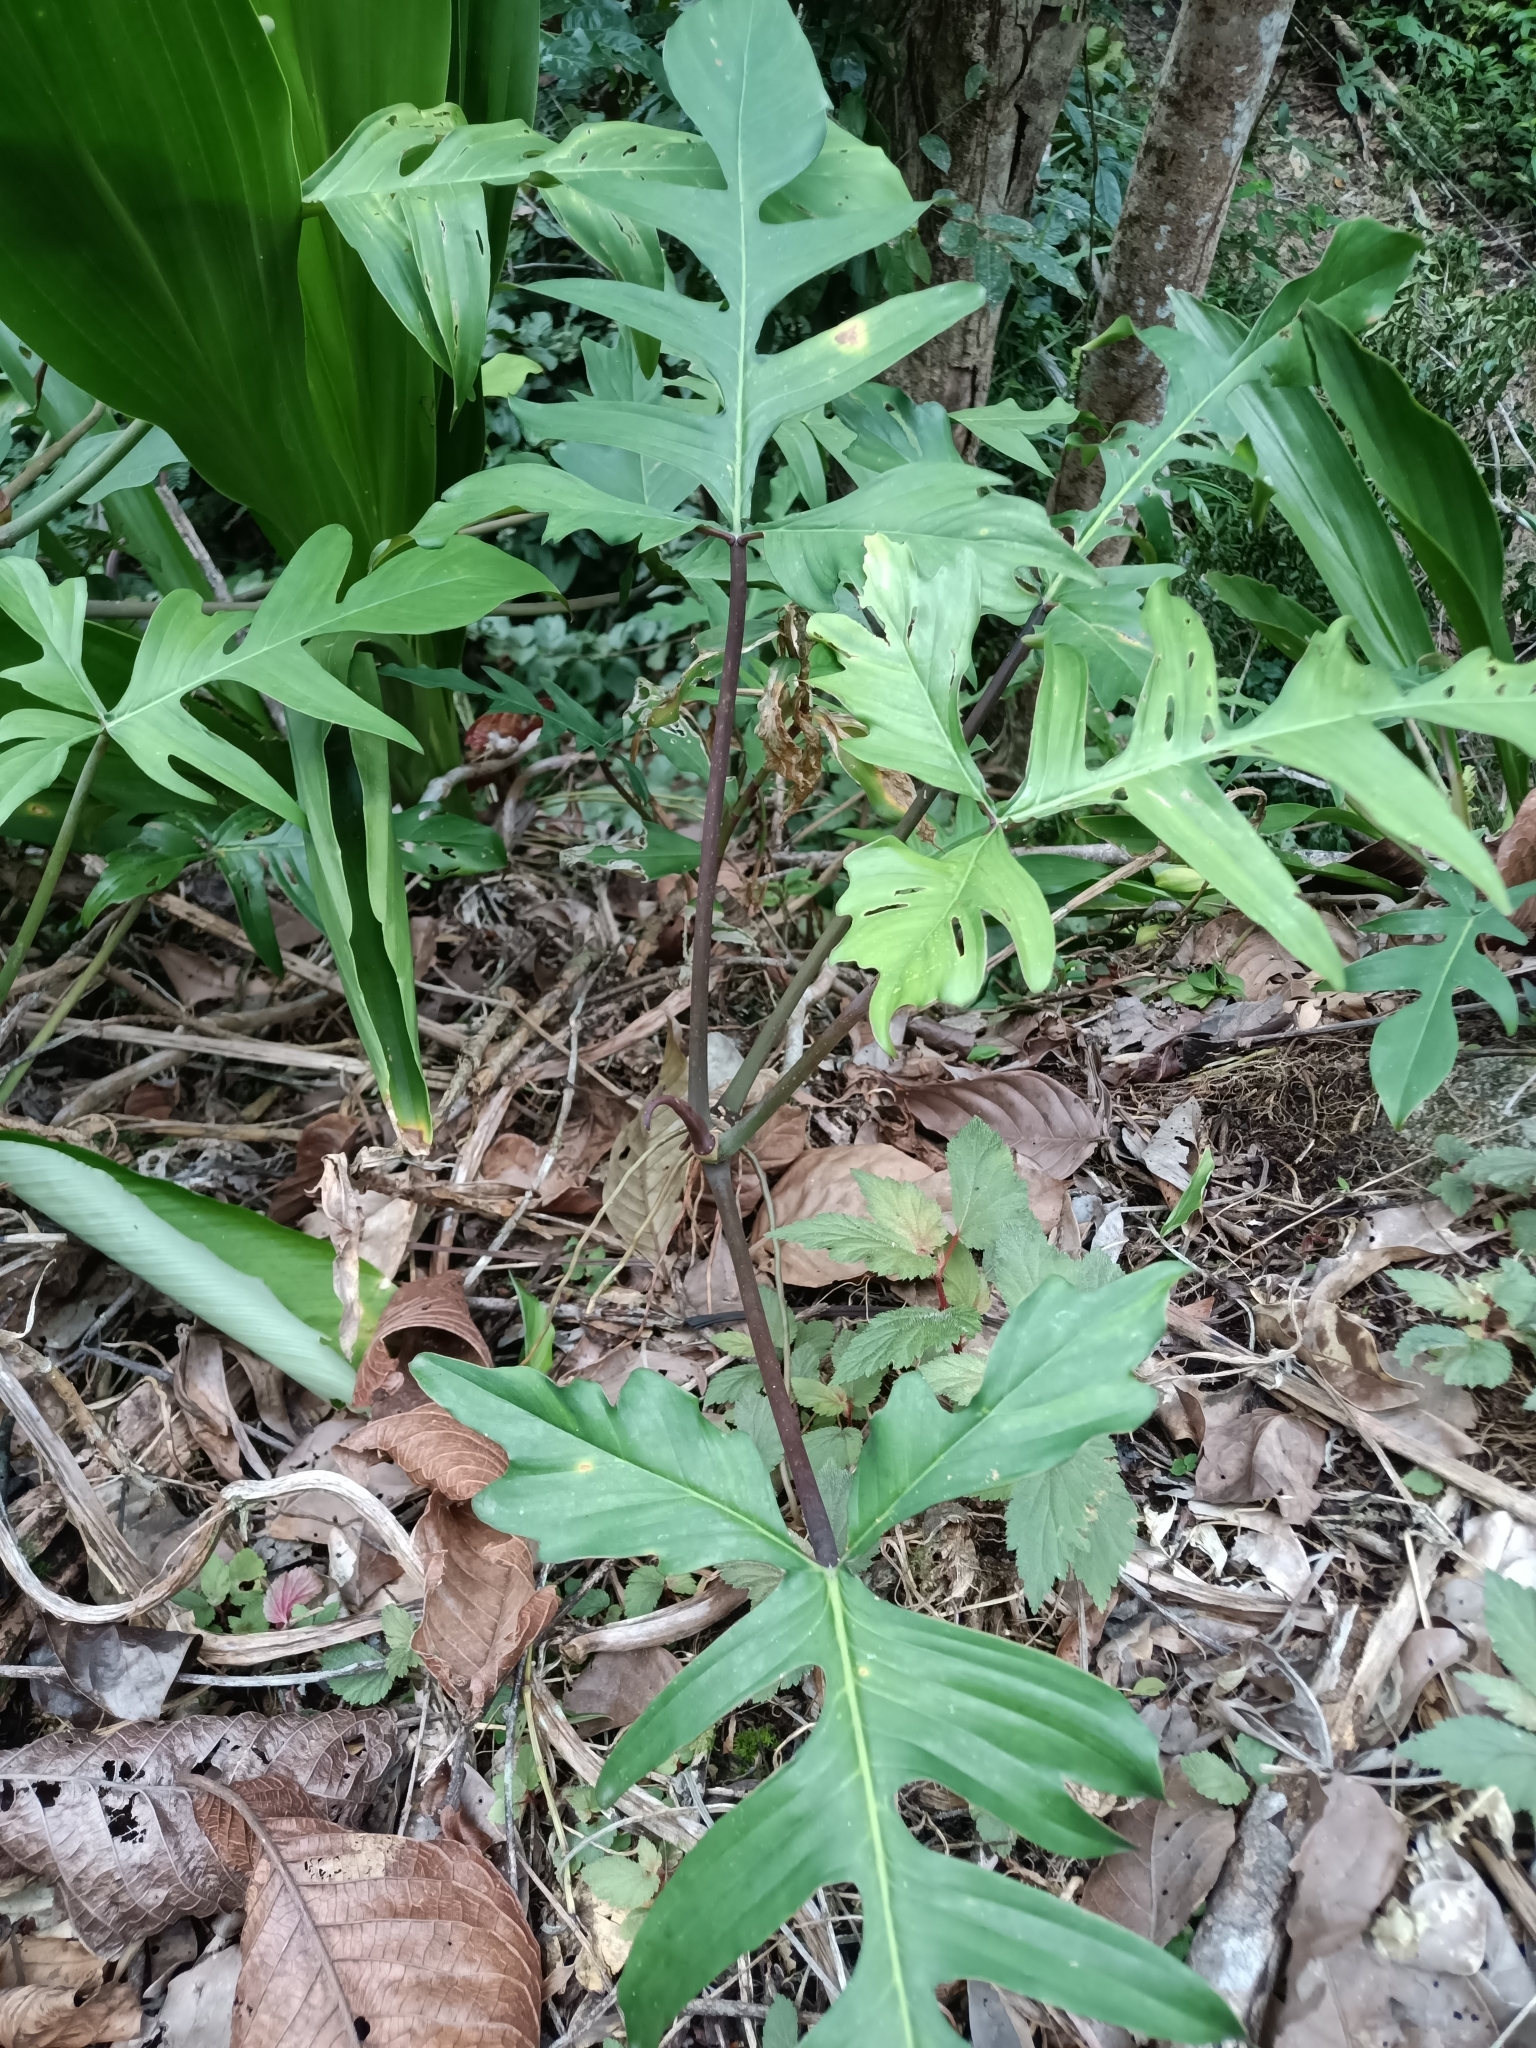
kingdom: Plantae
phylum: Tracheophyta
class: Liliopsida
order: Alismatales
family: Araceae
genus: Philodendron
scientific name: Philodendron pedatum
